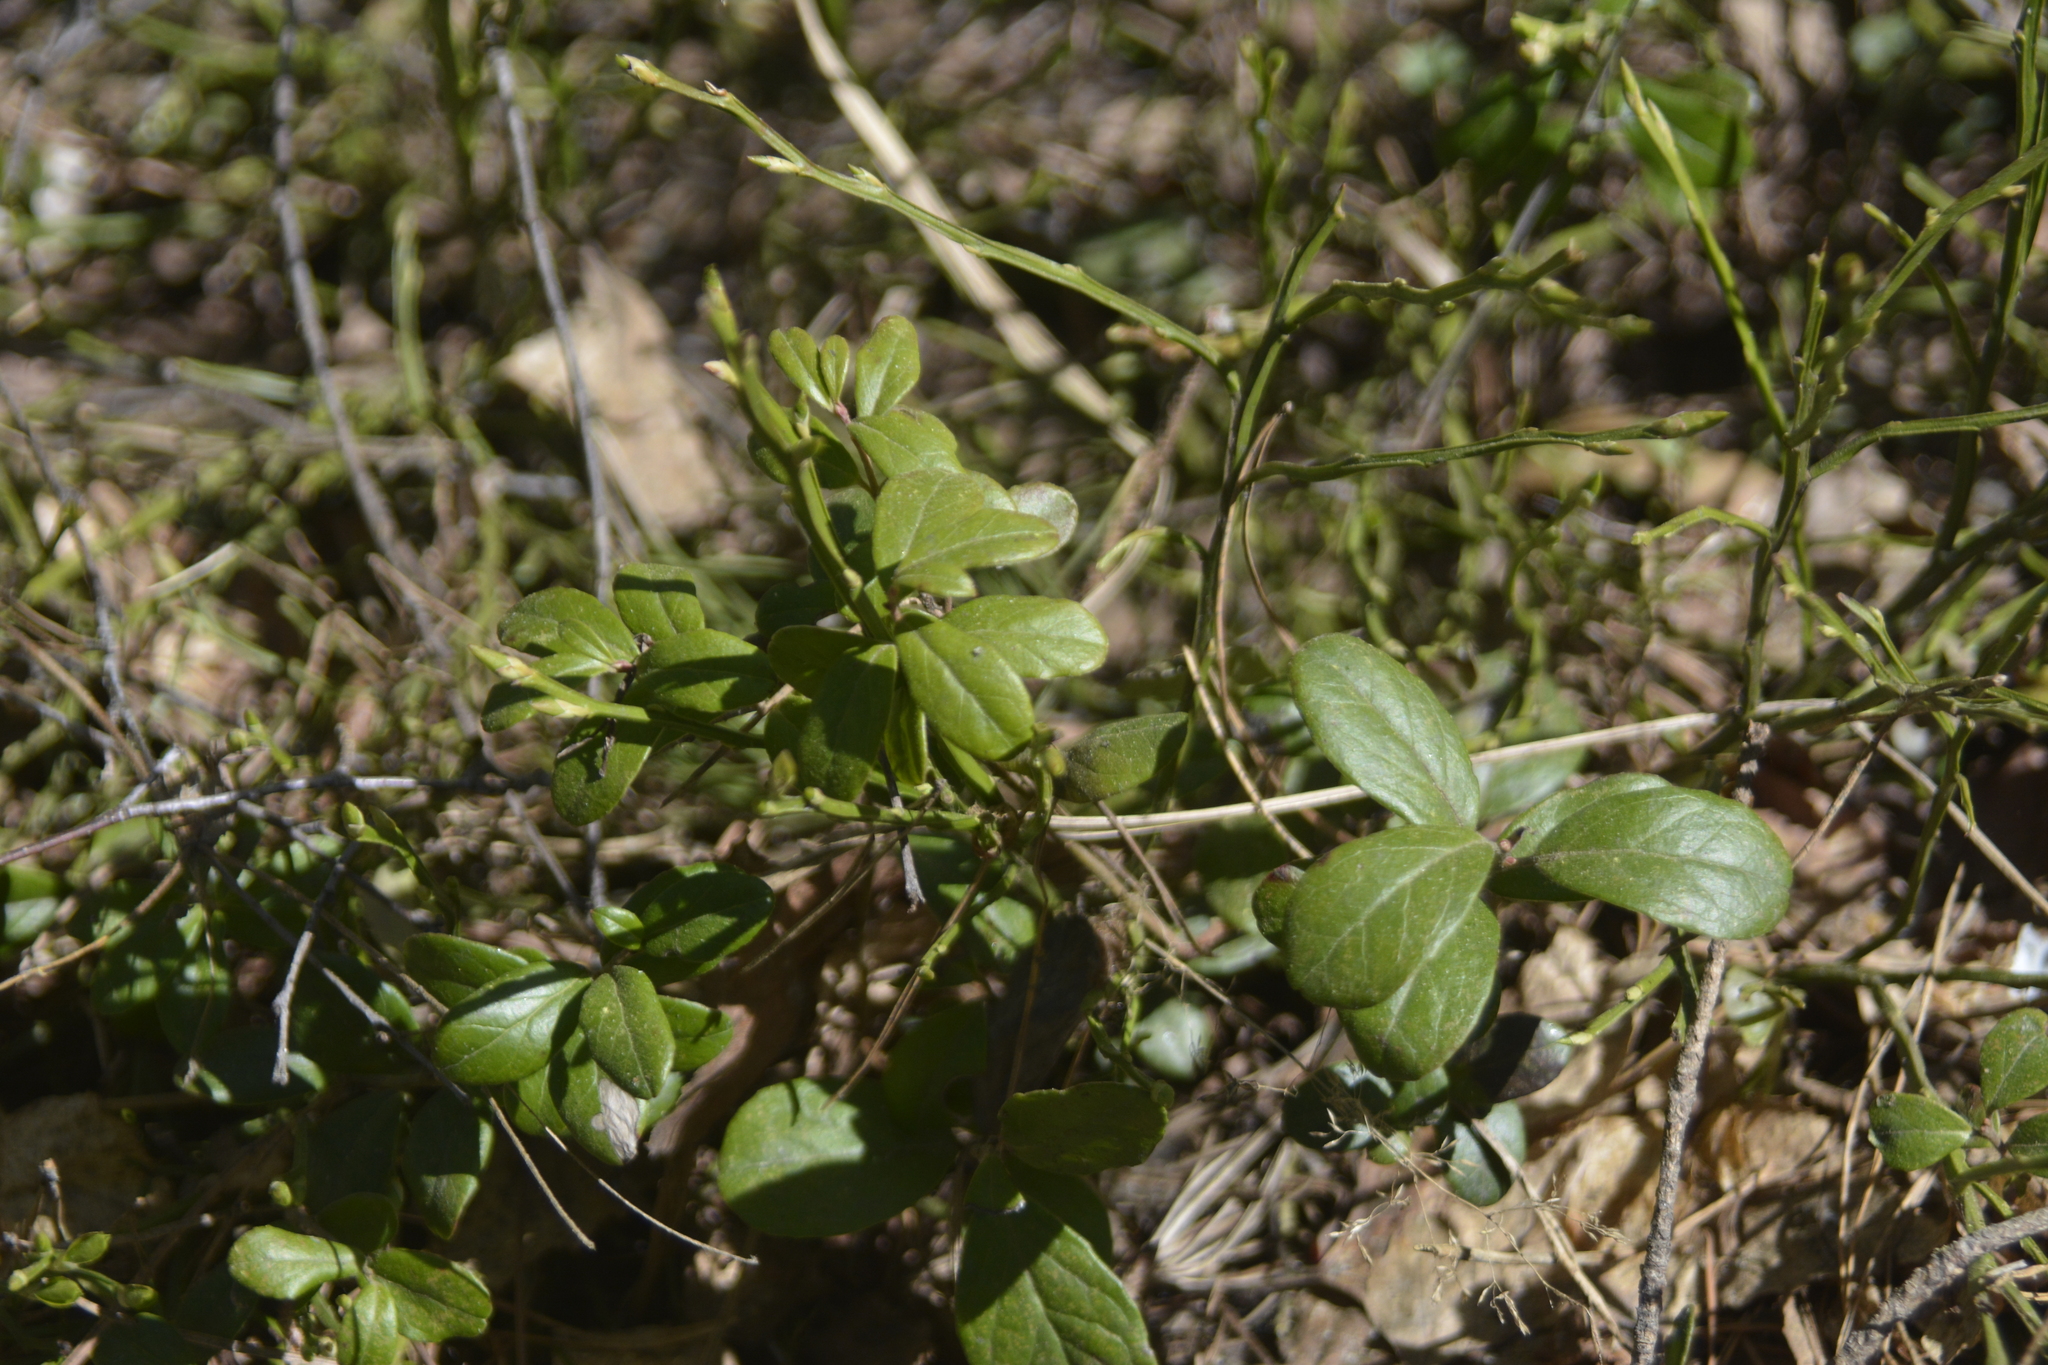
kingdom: Plantae
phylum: Tracheophyta
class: Magnoliopsida
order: Ericales
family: Ericaceae
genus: Vaccinium
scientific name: Vaccinium vitis-idaea
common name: Cowberry
